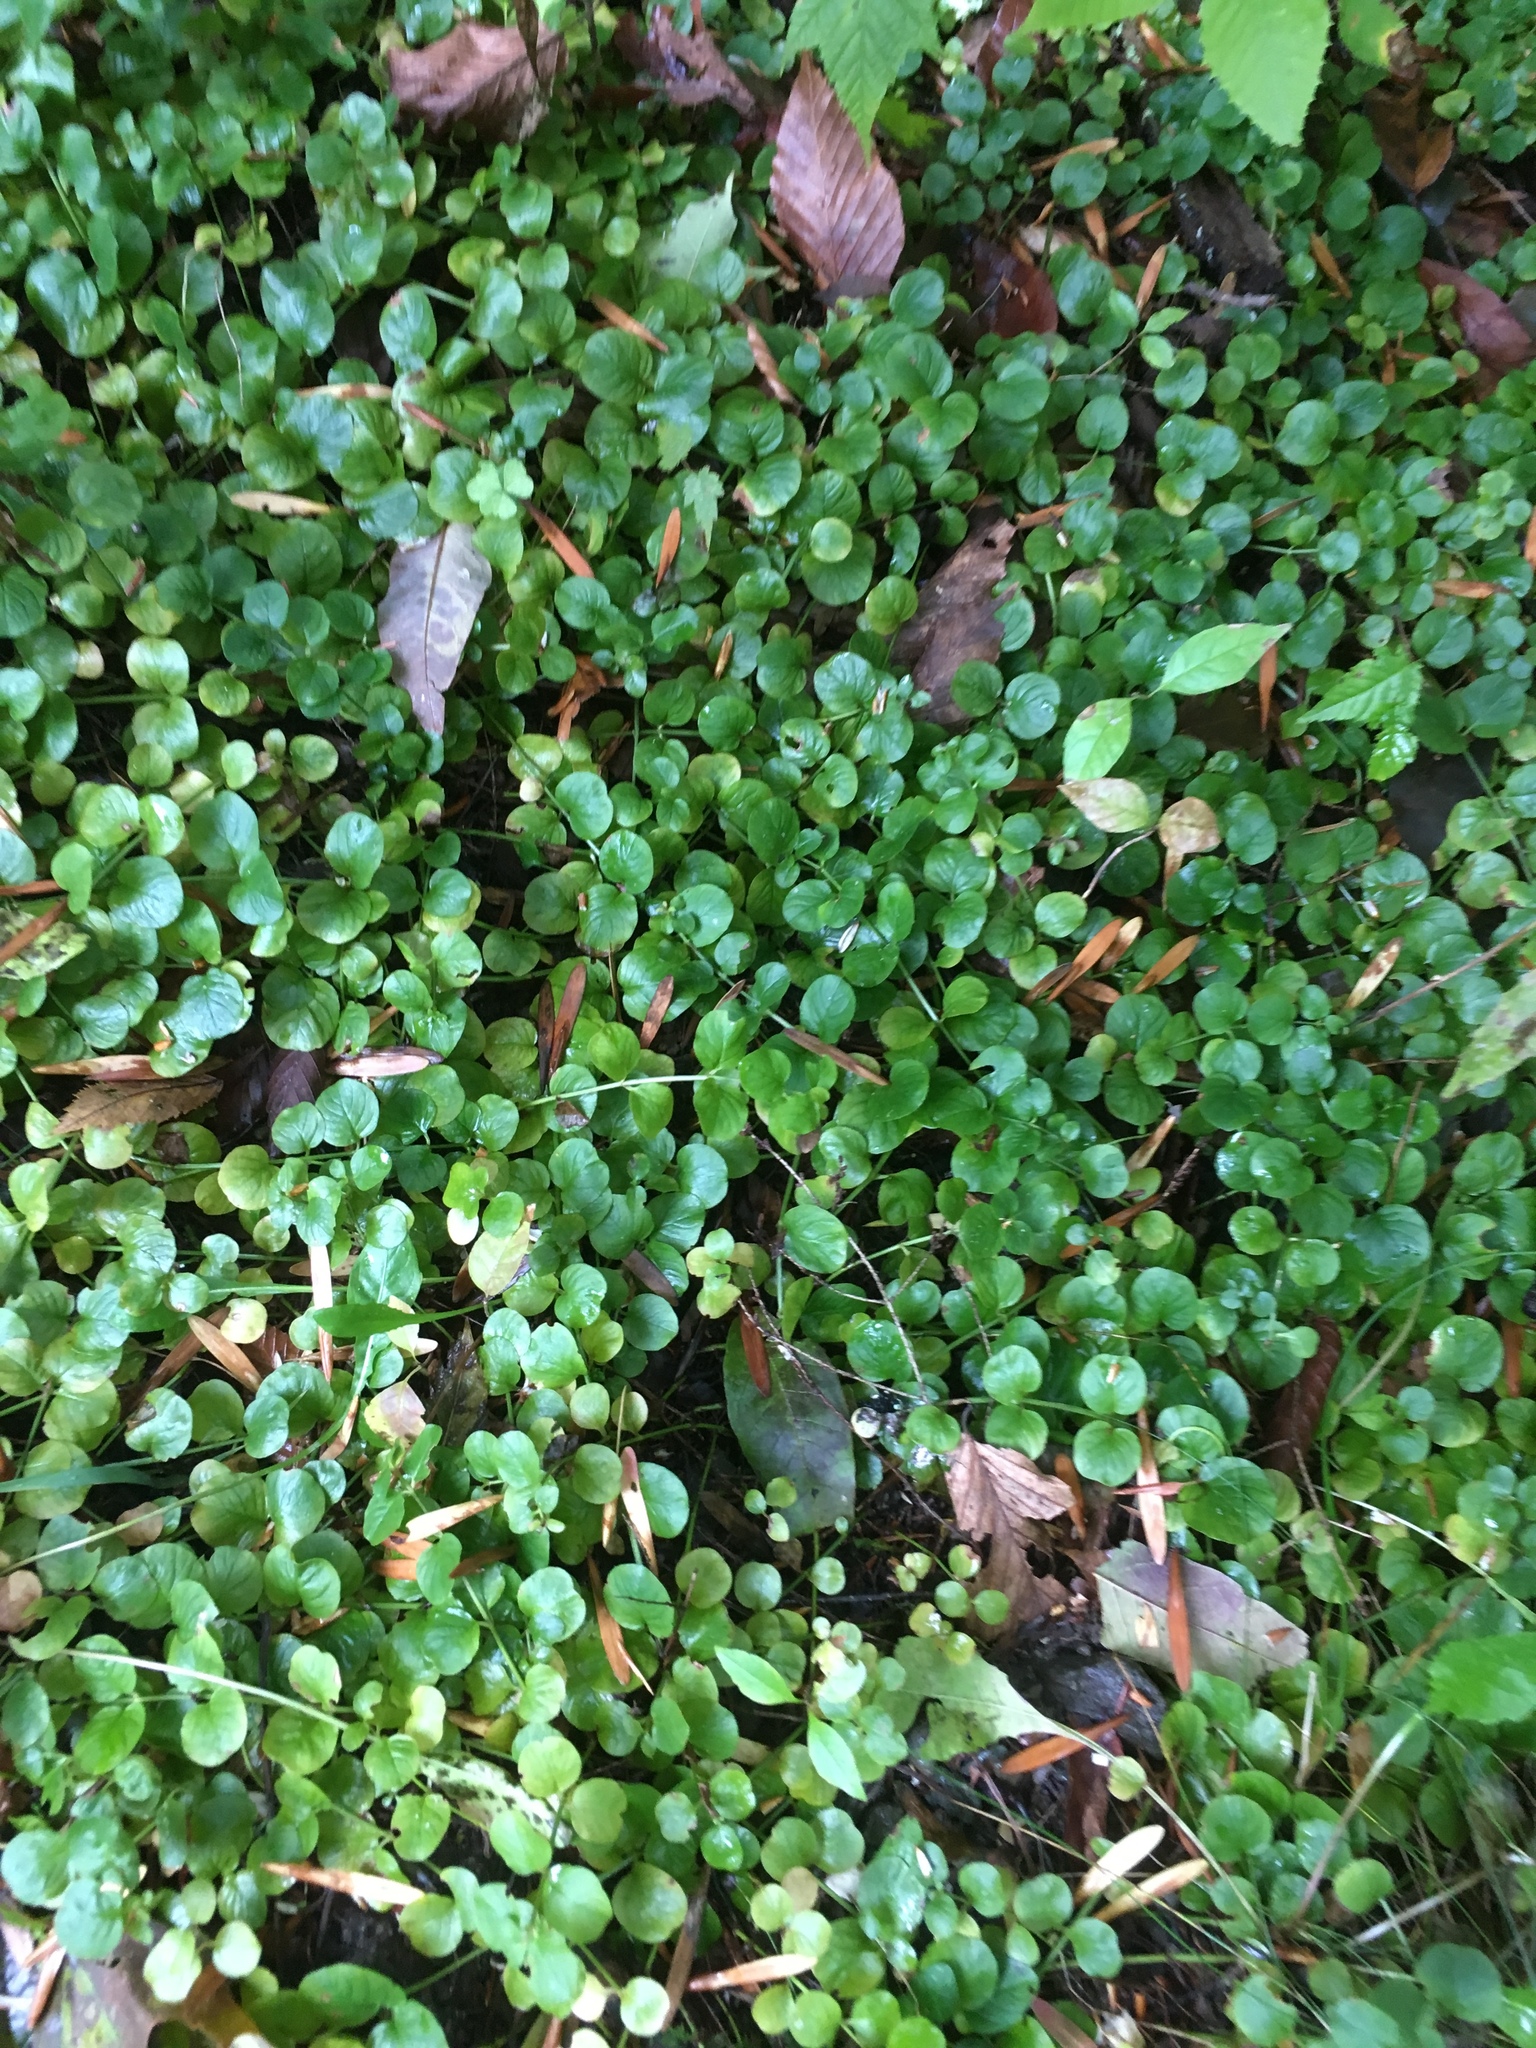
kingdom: Plantae
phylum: Tracheophyta
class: Magnoliopsida
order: Ericales
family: Primulaceae
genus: Lysimachia
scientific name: Lysimachia nummularia
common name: Moneywort
